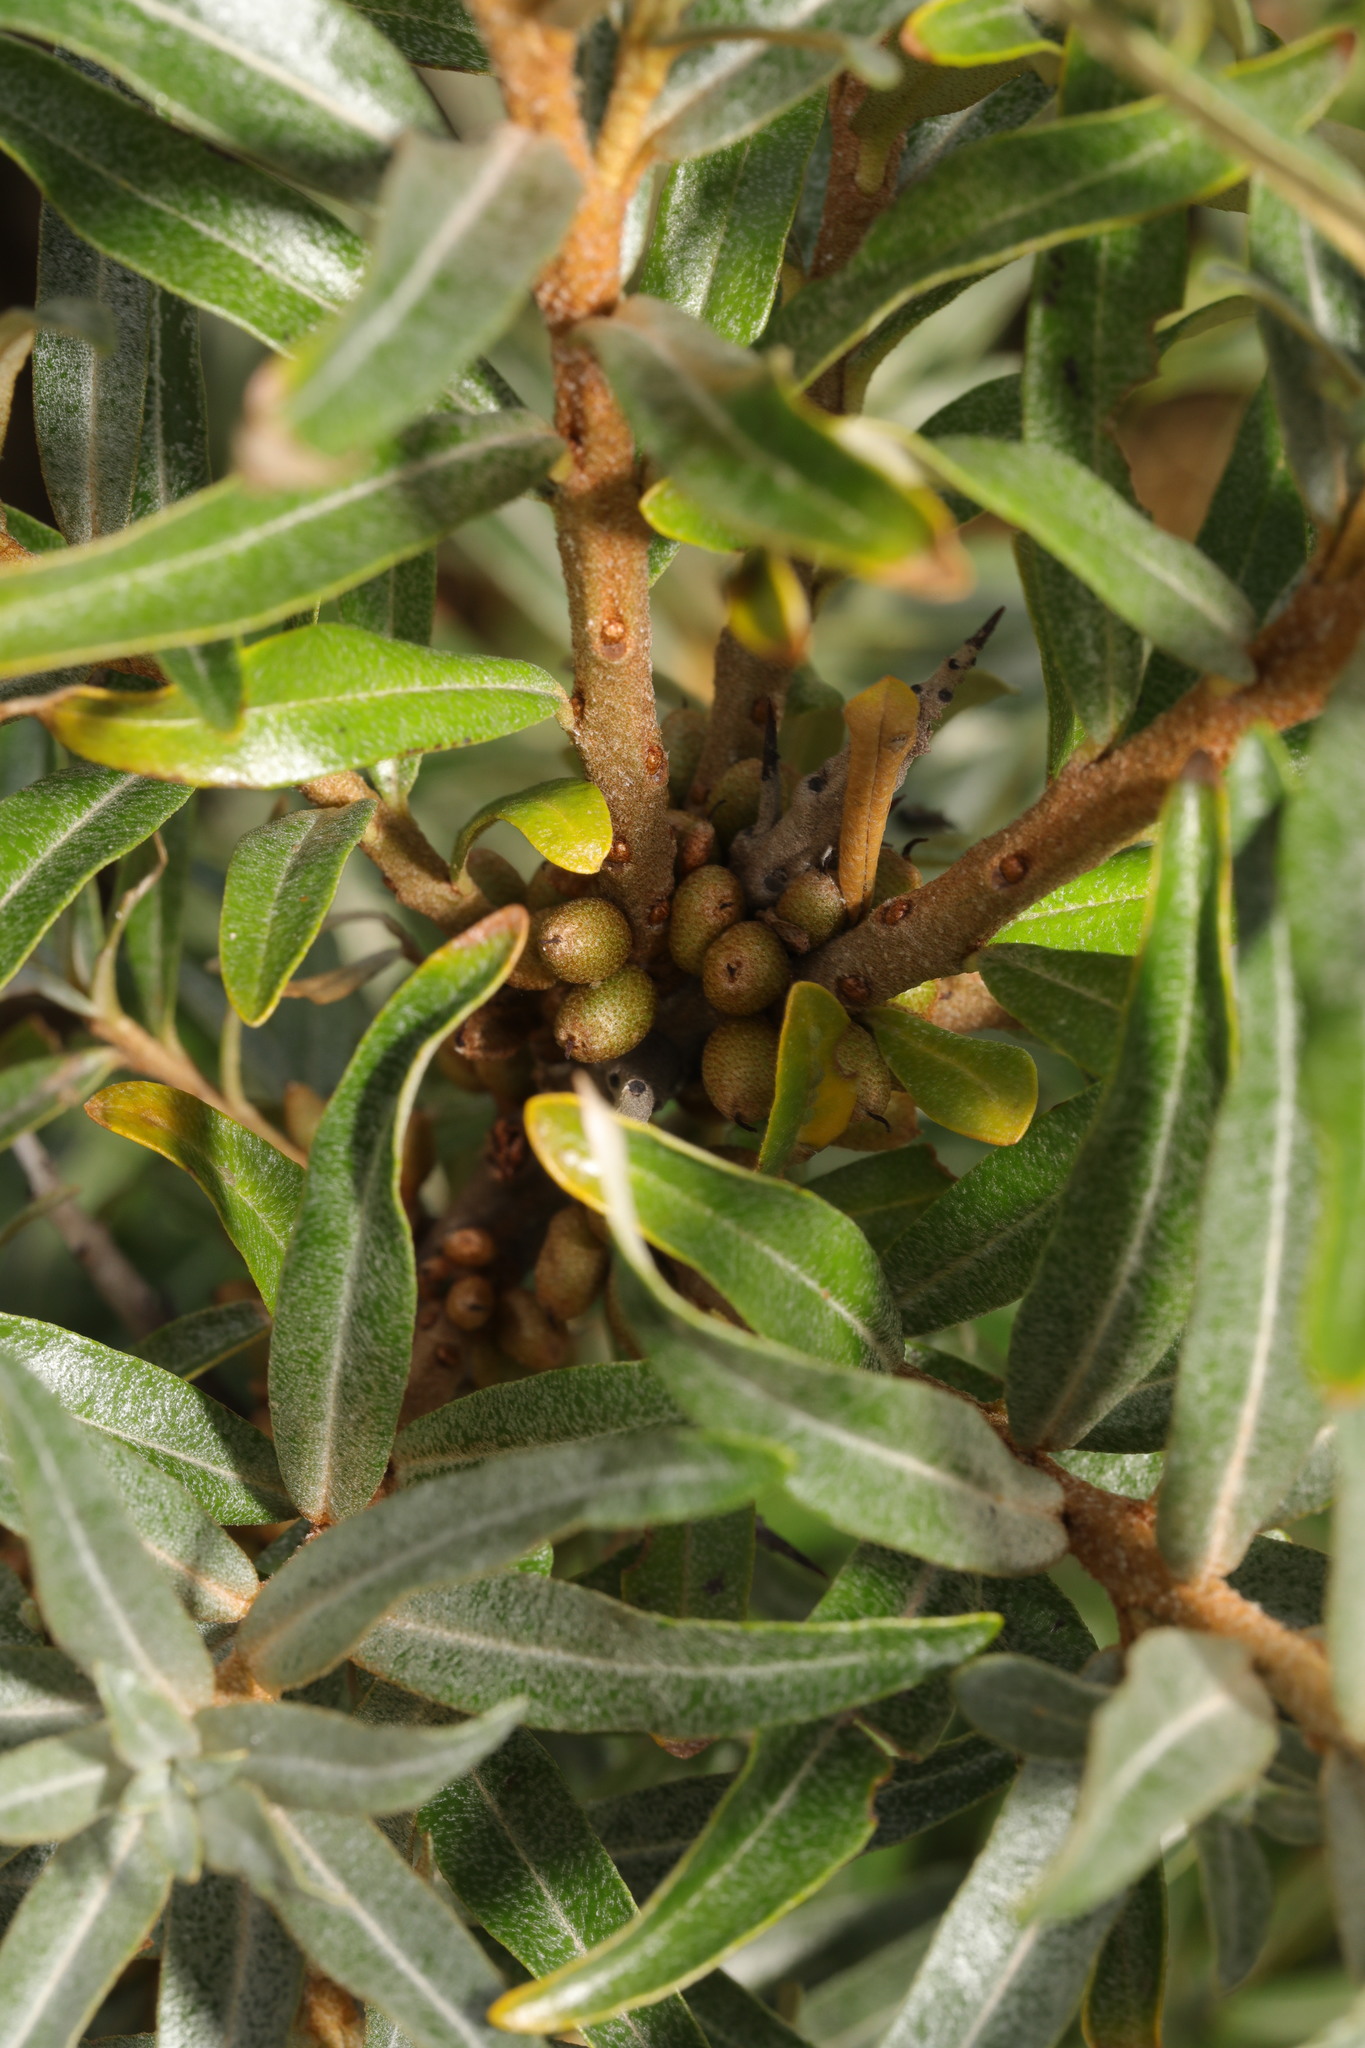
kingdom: Plantae
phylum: Tracheophyta
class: Magnoliopsida
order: Rosales
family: Elaeagnaceae
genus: Hippophae
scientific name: Hippophae rhamnoides
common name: Sea-buckthorn
